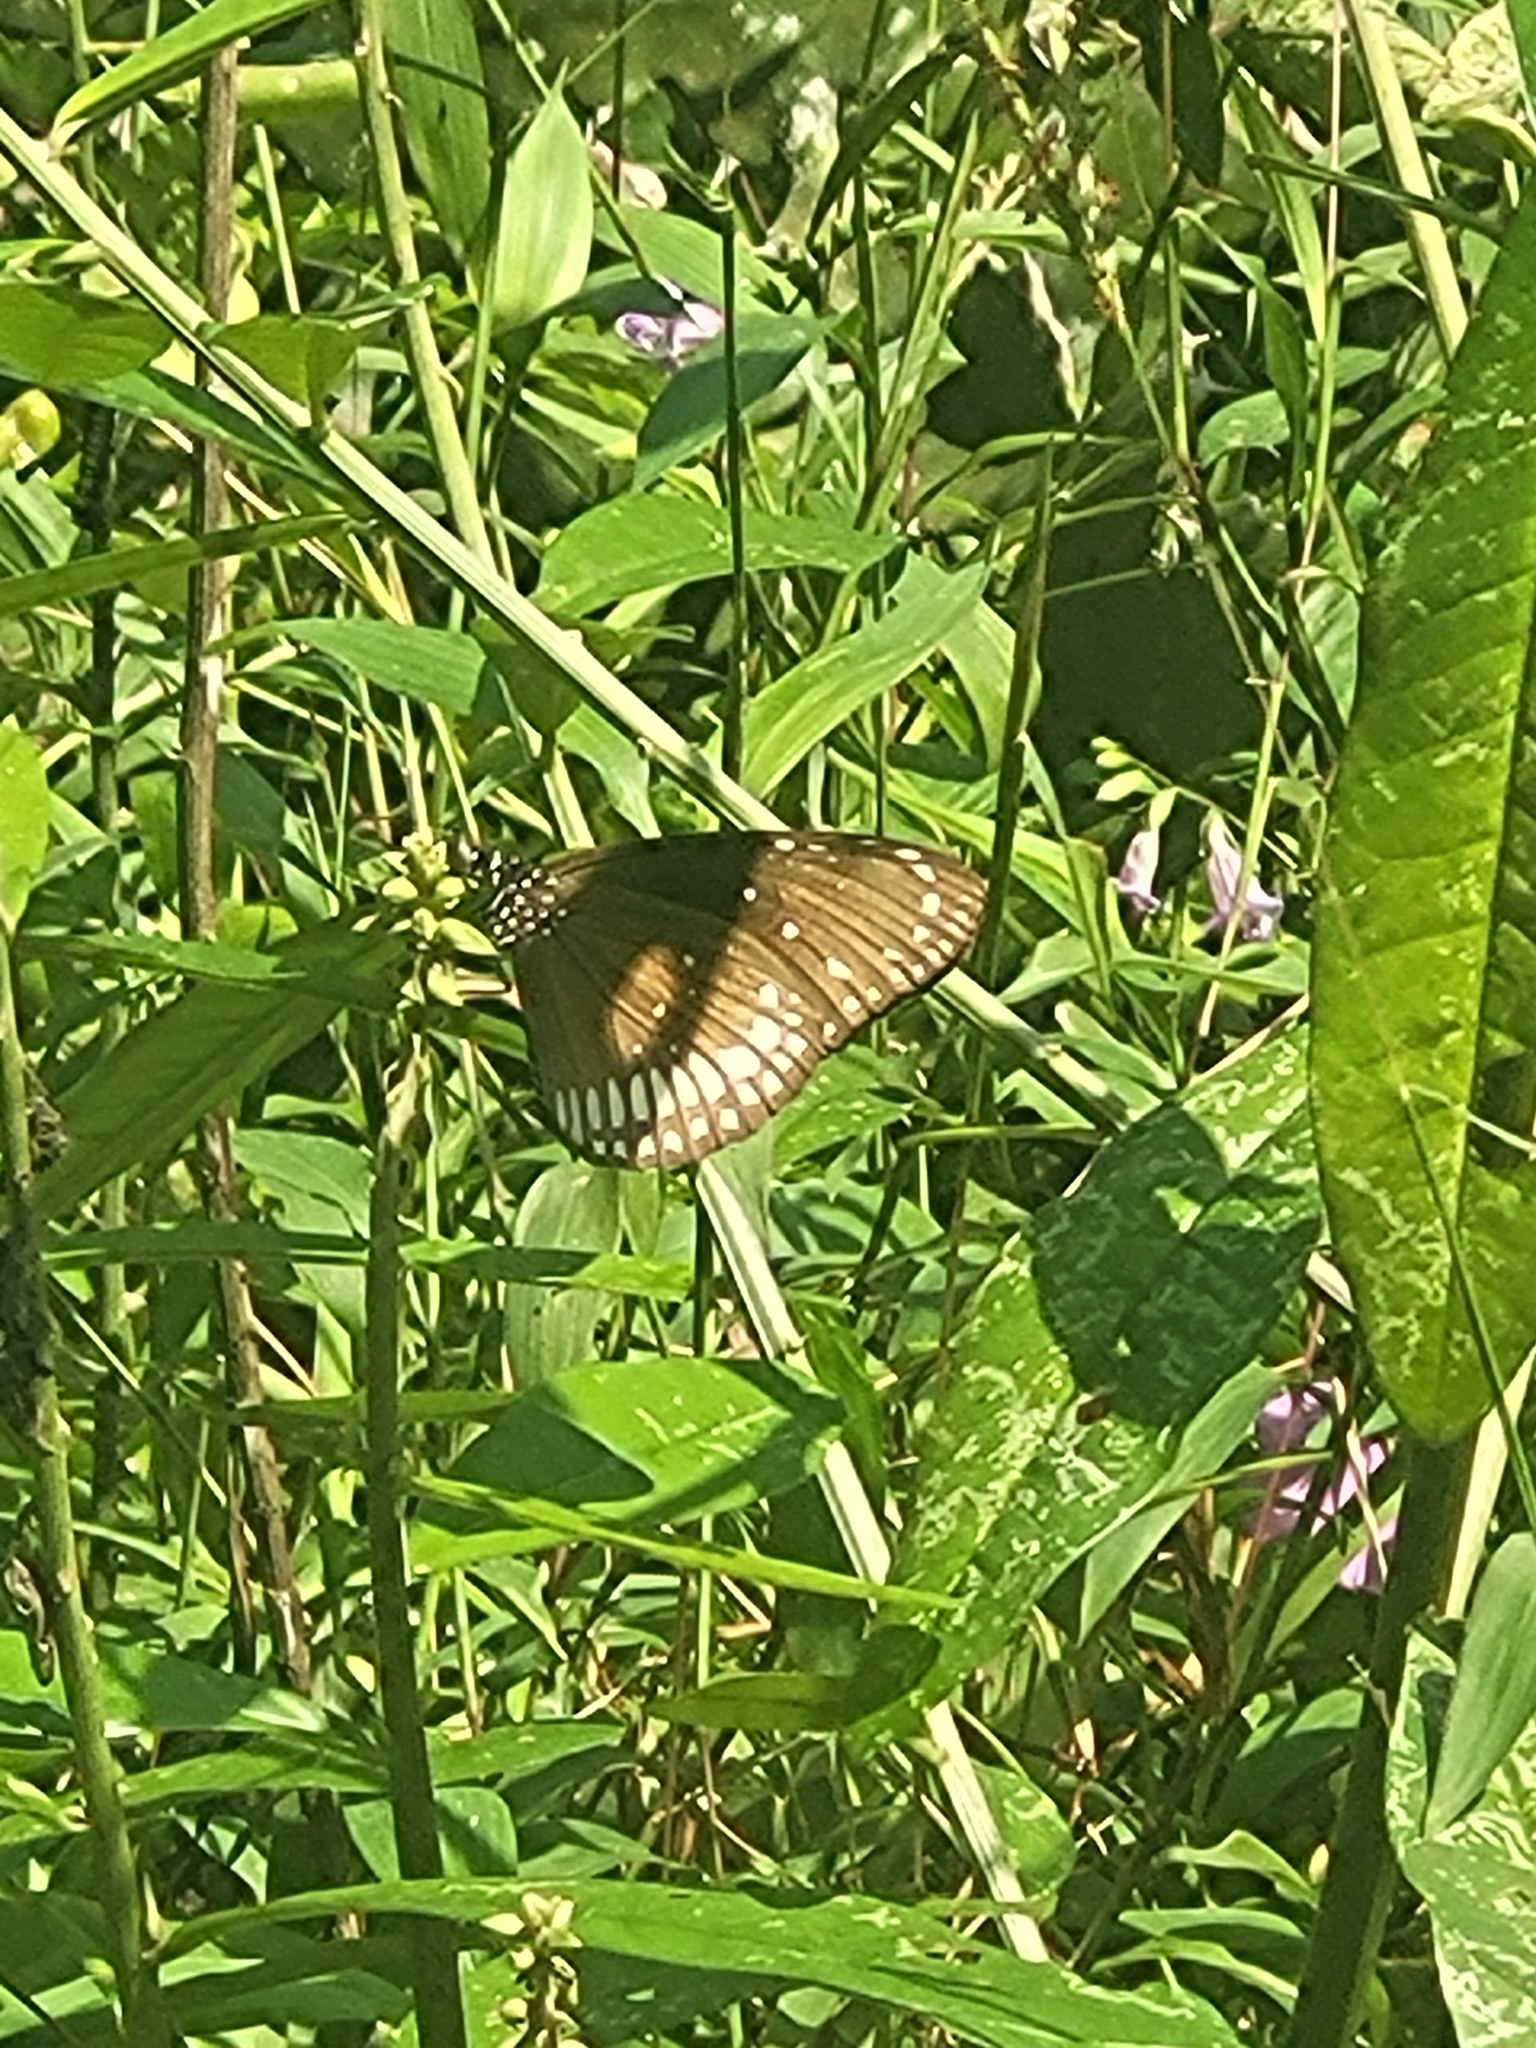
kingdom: Animalia
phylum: Arthropoda
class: Insecta
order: Lepidoptera
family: Nymphalidae
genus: Euploea
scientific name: Euploea core
